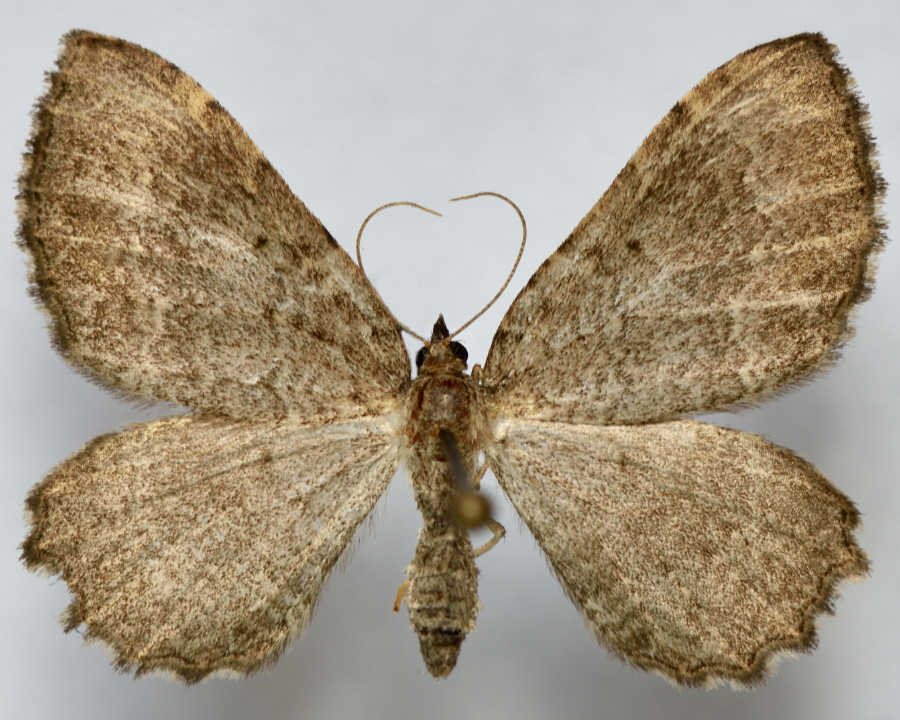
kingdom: Animalia
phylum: Arthropoda
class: Insecta
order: Lepidoptera
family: Geometridae
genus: Philereme
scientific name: Philereme vetulata
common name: Brown scallop
